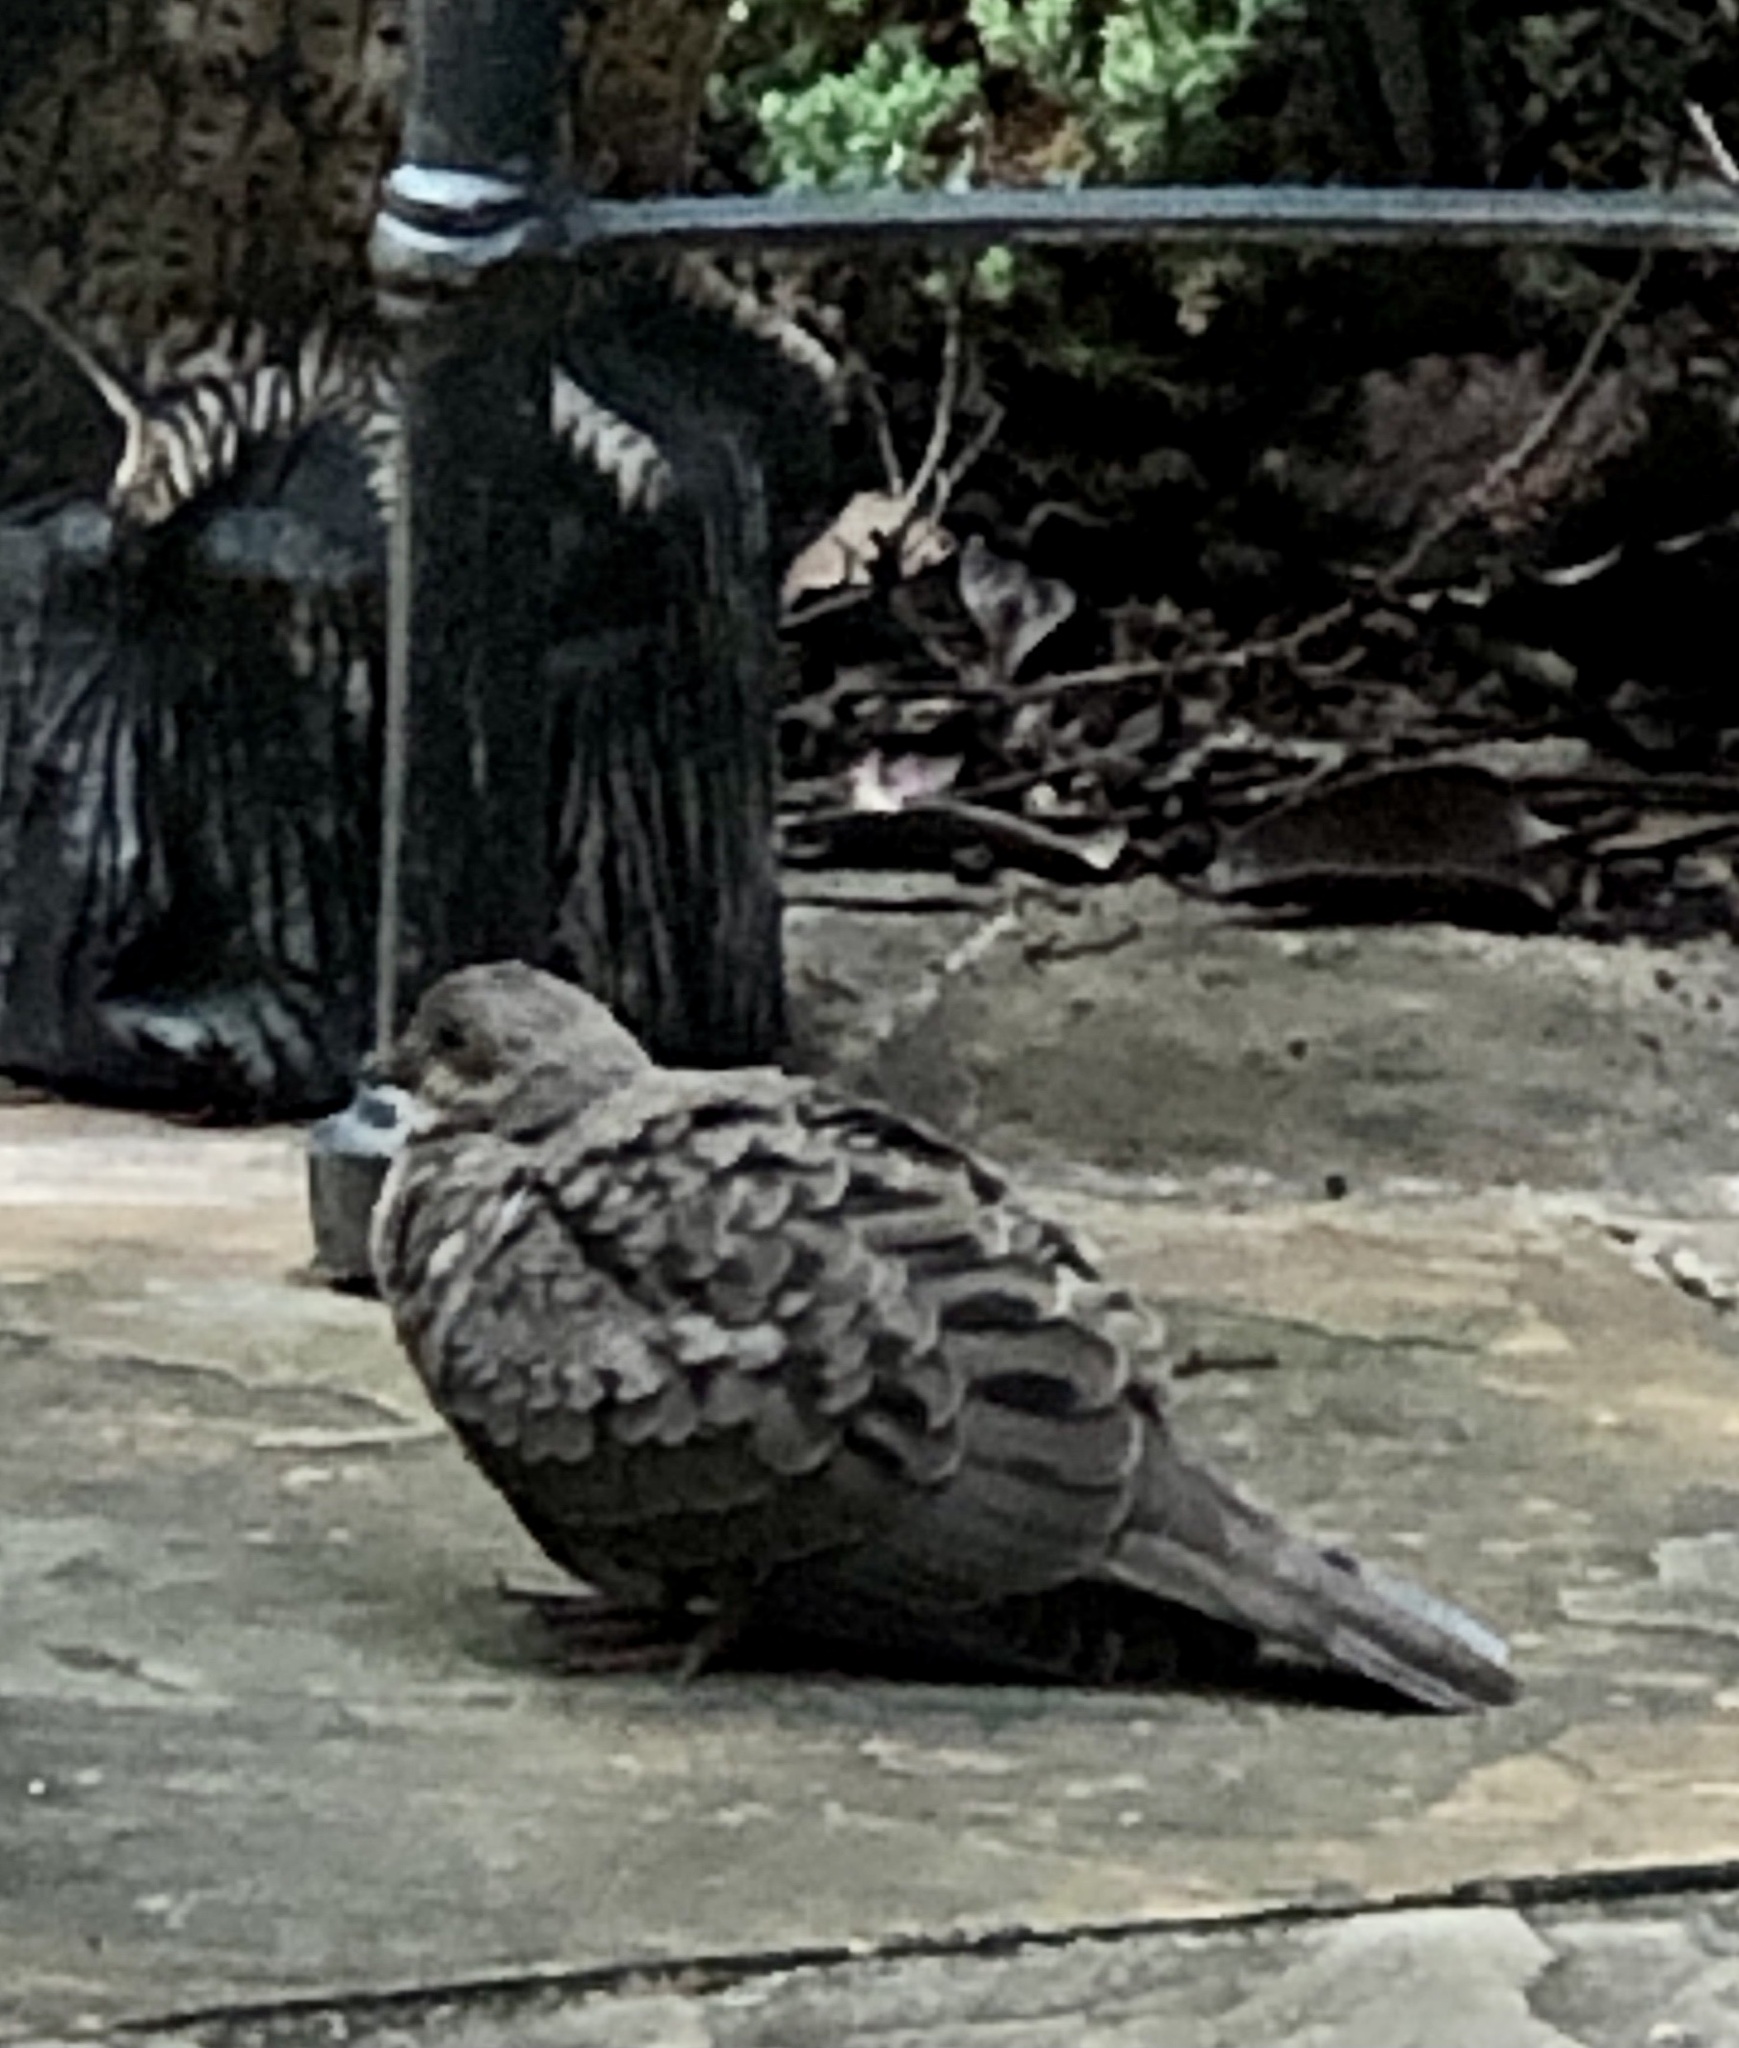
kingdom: Animalia
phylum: Chordata
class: Aves
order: Columbiformes
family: Columbidae
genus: Zenaida
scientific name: Zenaida macroura
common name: Mourning dove
